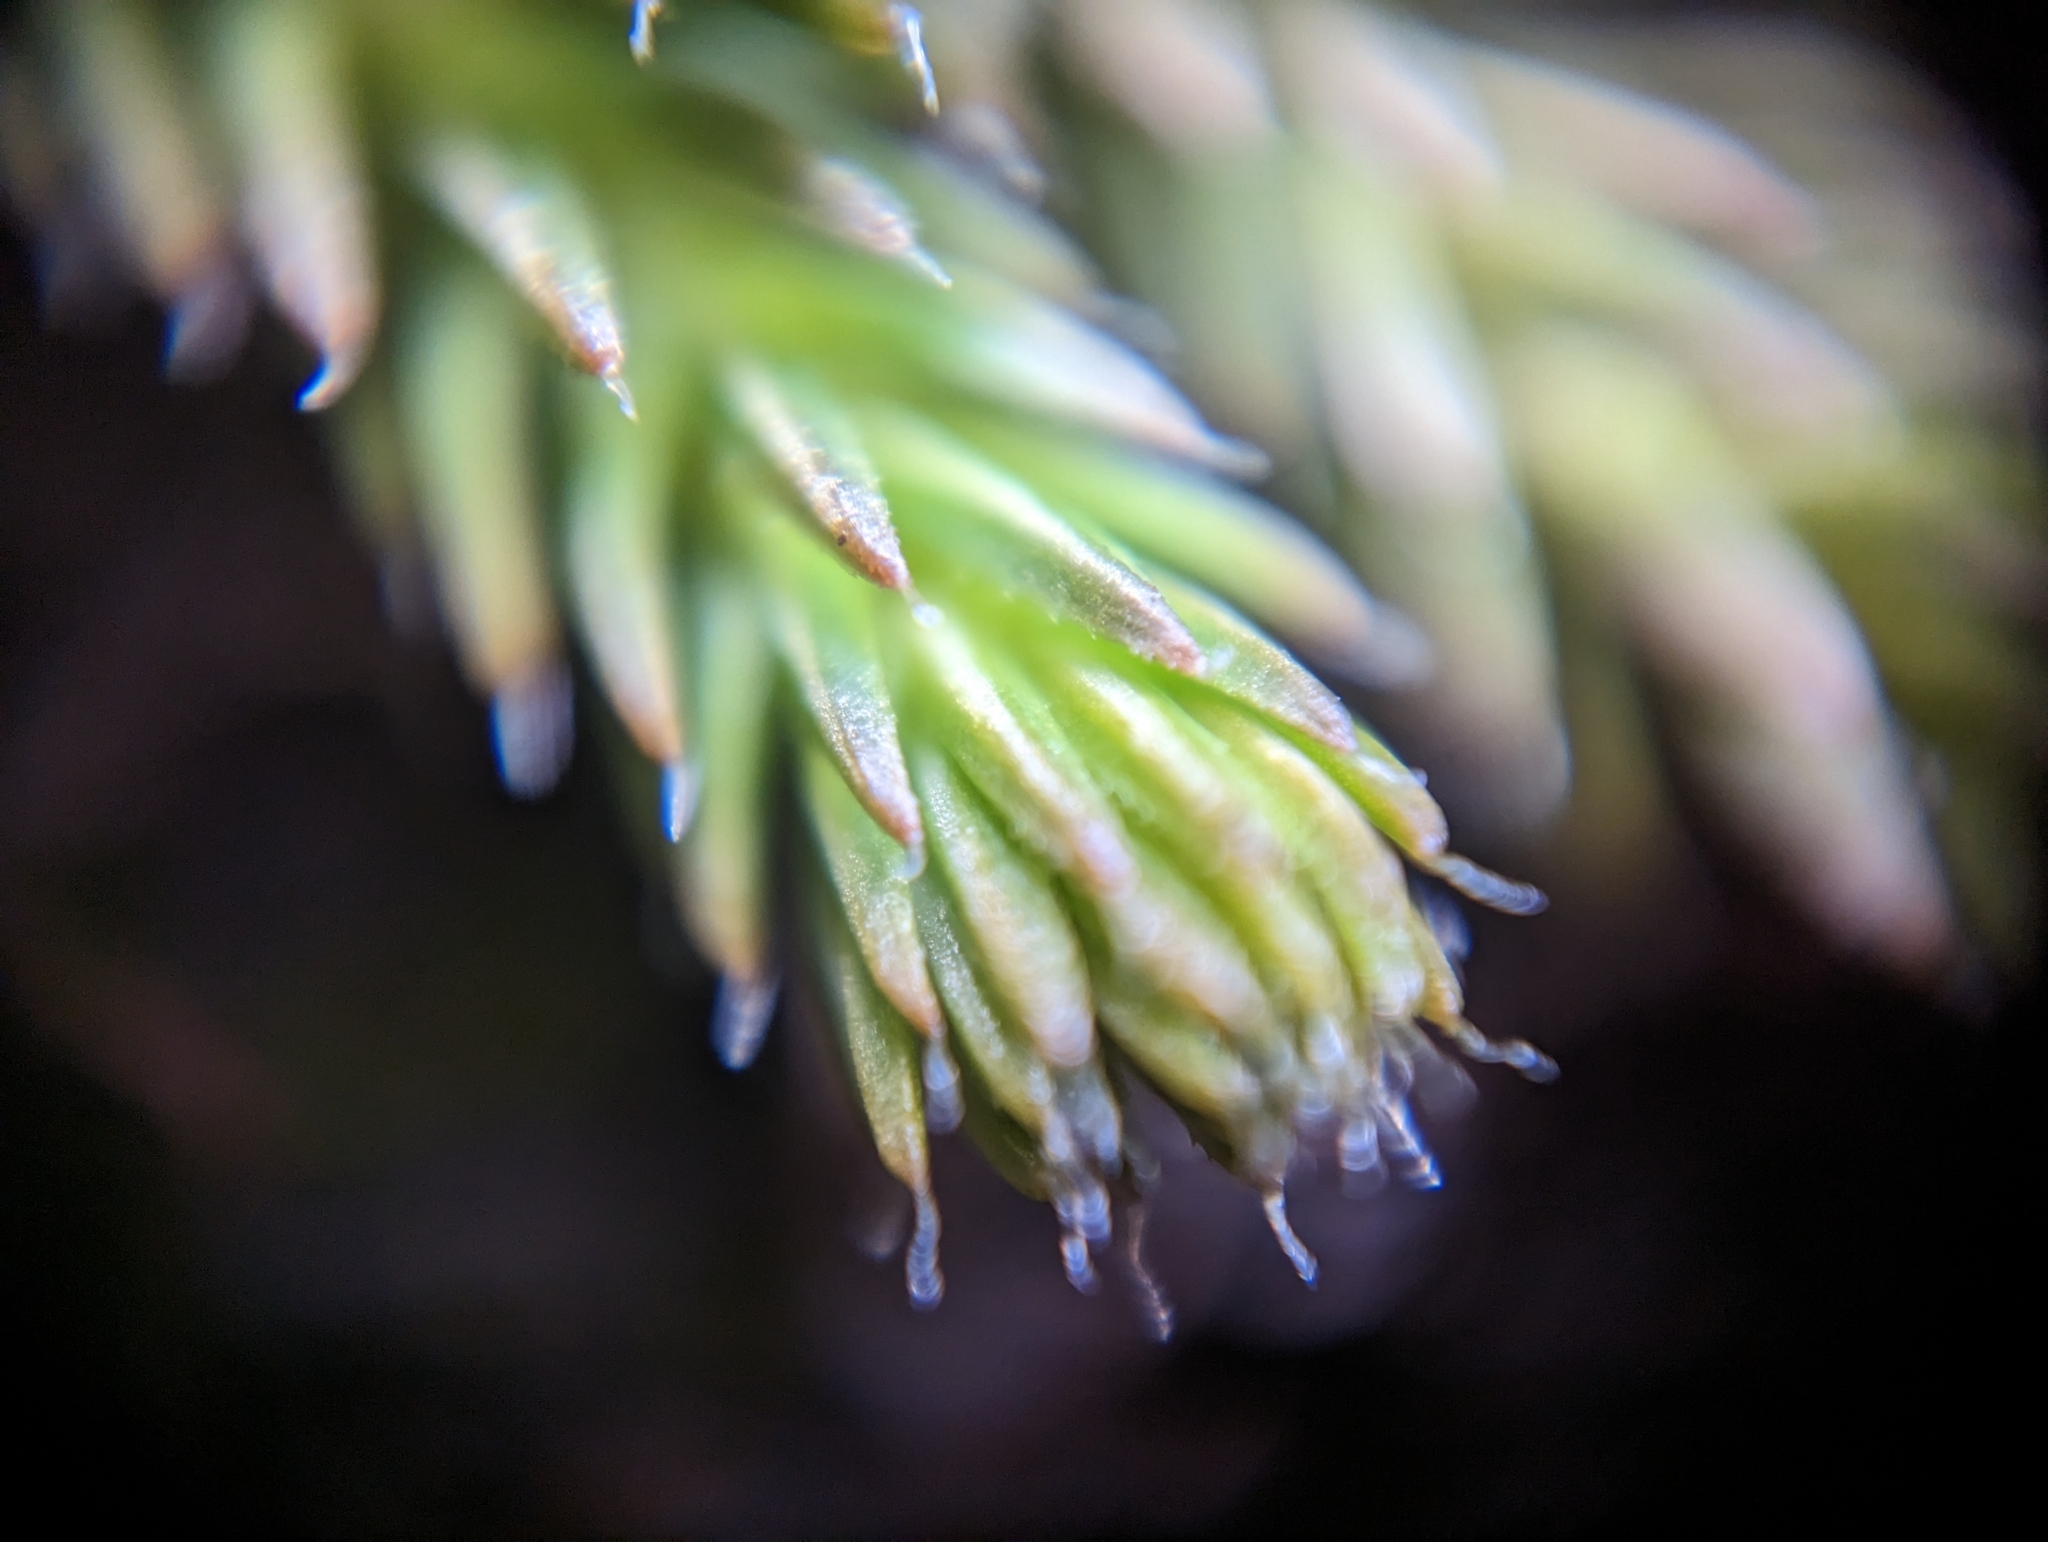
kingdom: Plantae
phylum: Tracheophyta
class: Lycopodiopsida
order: Selaginellales
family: Selaginellaceae
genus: Selaginella
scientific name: Selaginella wallacei
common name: Wallace's selaginella
